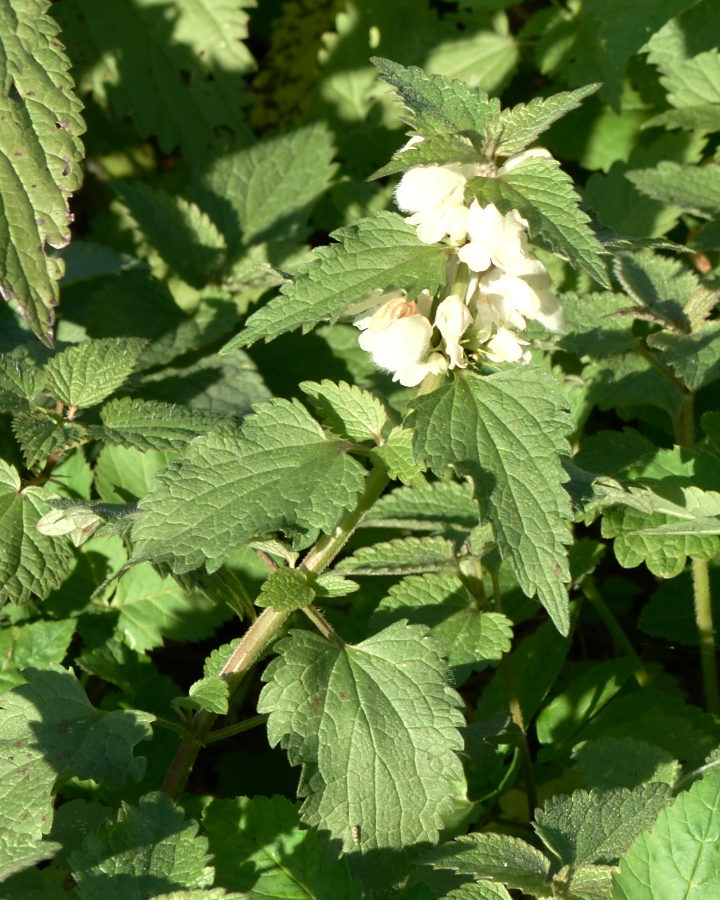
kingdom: Plantae
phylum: Tracheophyta
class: Magnoliopsida
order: Lamiales
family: Lamiaceae
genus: Lamium
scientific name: Lamium album
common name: White dead-nettle
